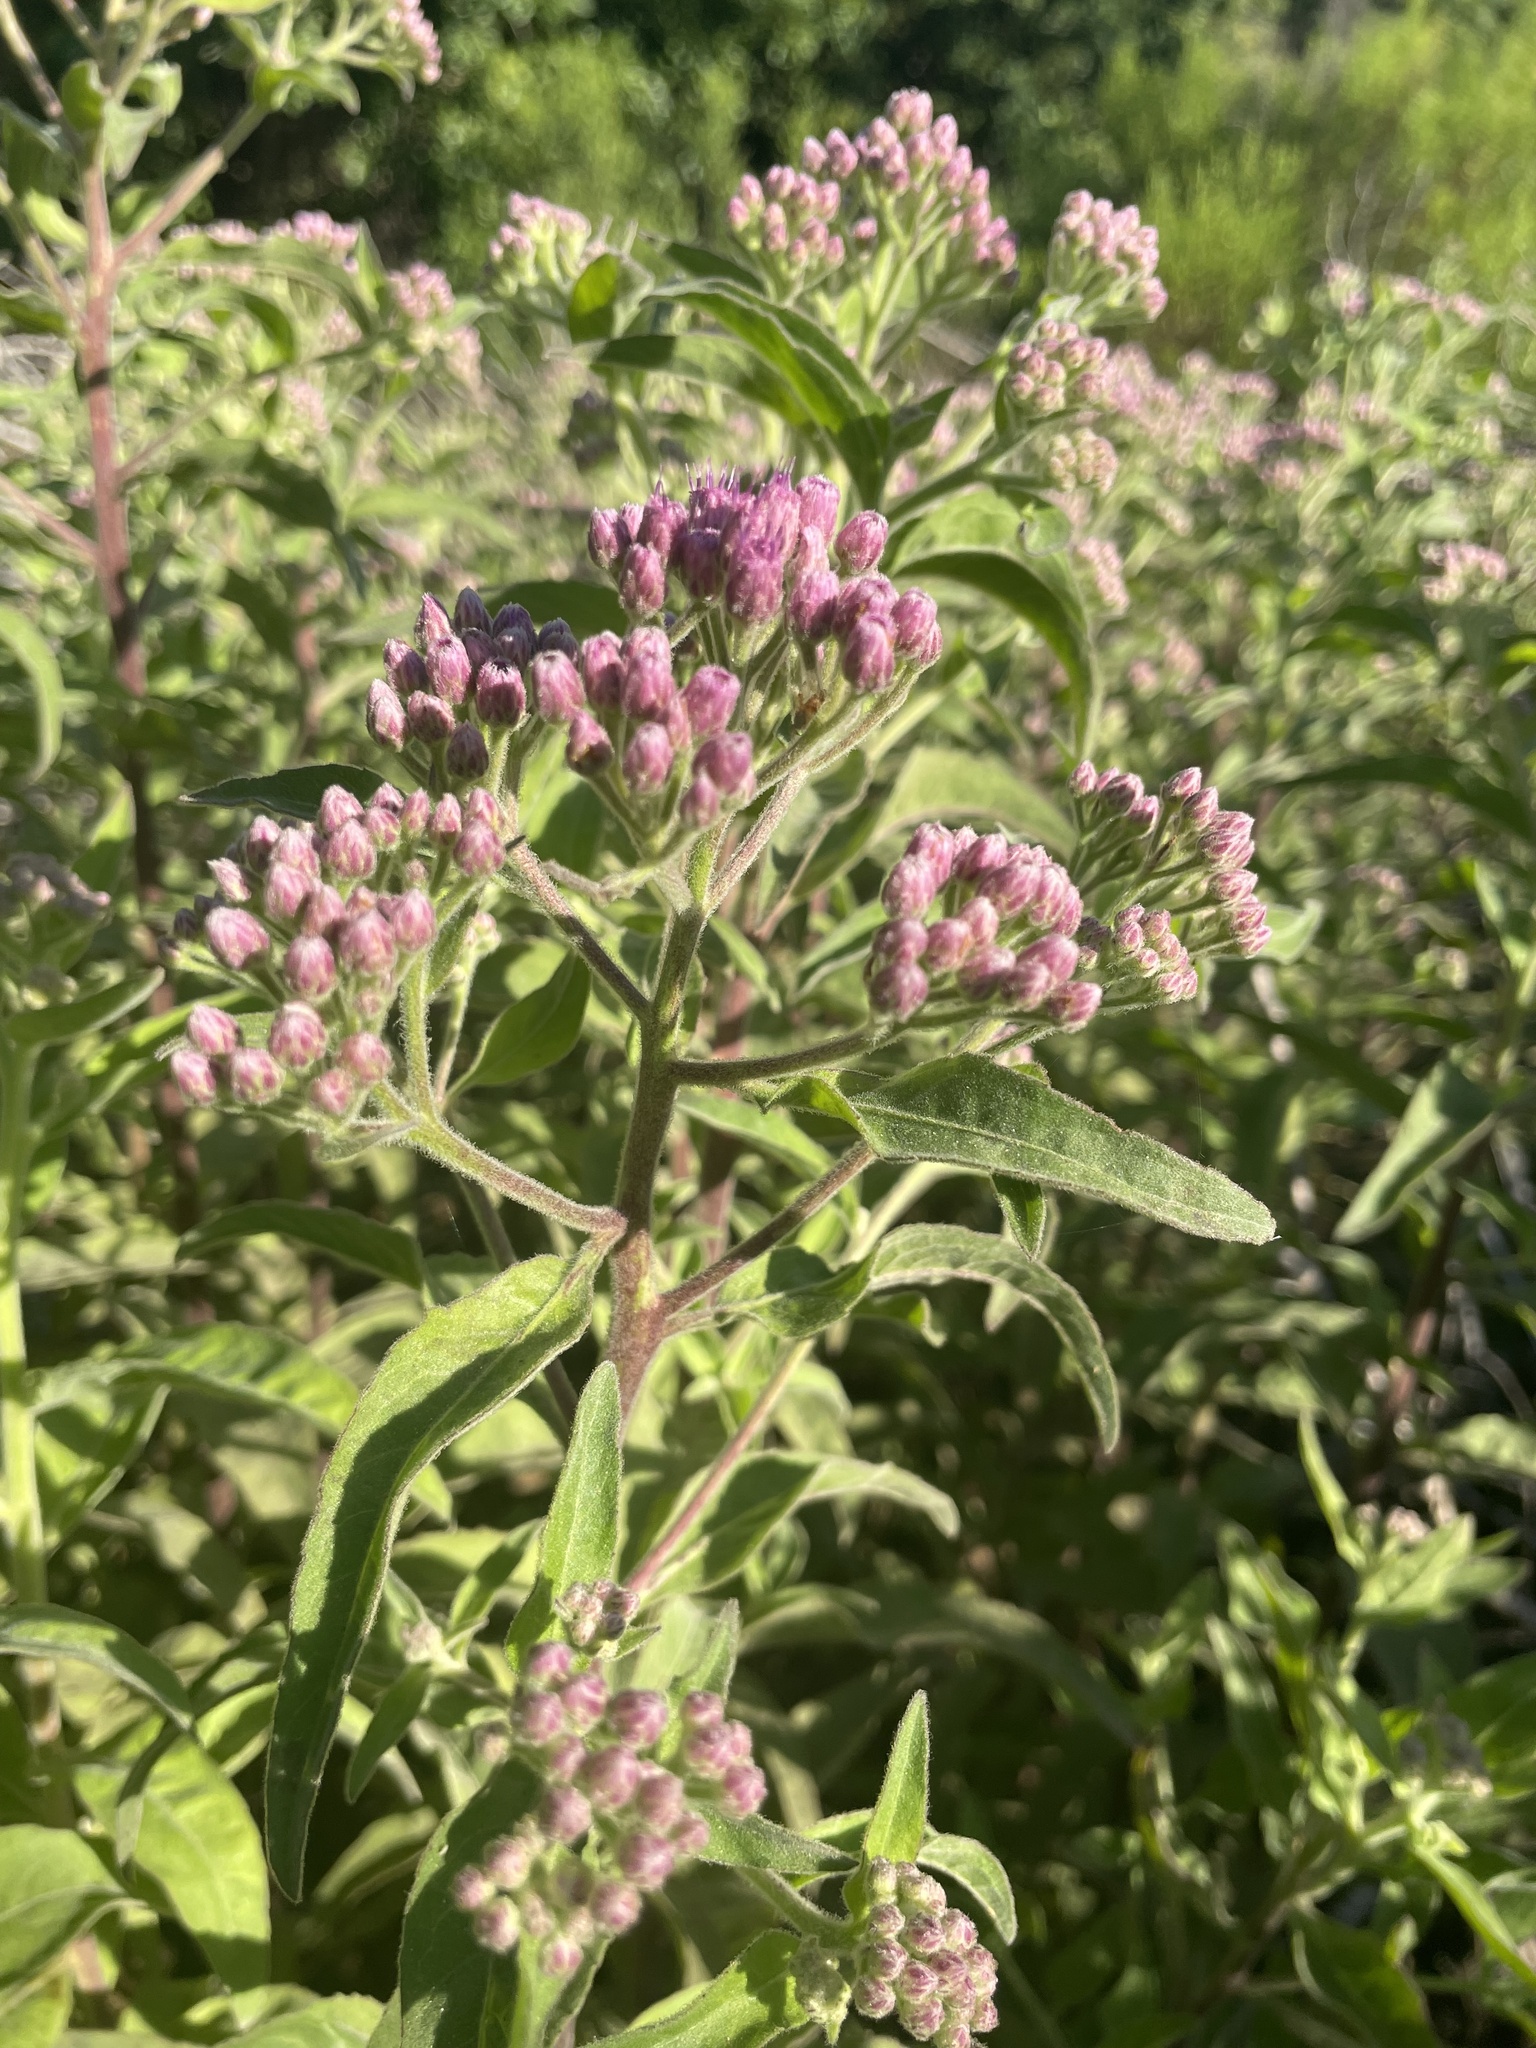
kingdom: Plantae
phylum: Tracheophyta
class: Magnoliopsida
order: Asterales
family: Asteraceae
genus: Pluchea
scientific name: Pluchea odorata
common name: Saltmarsh fleabane
